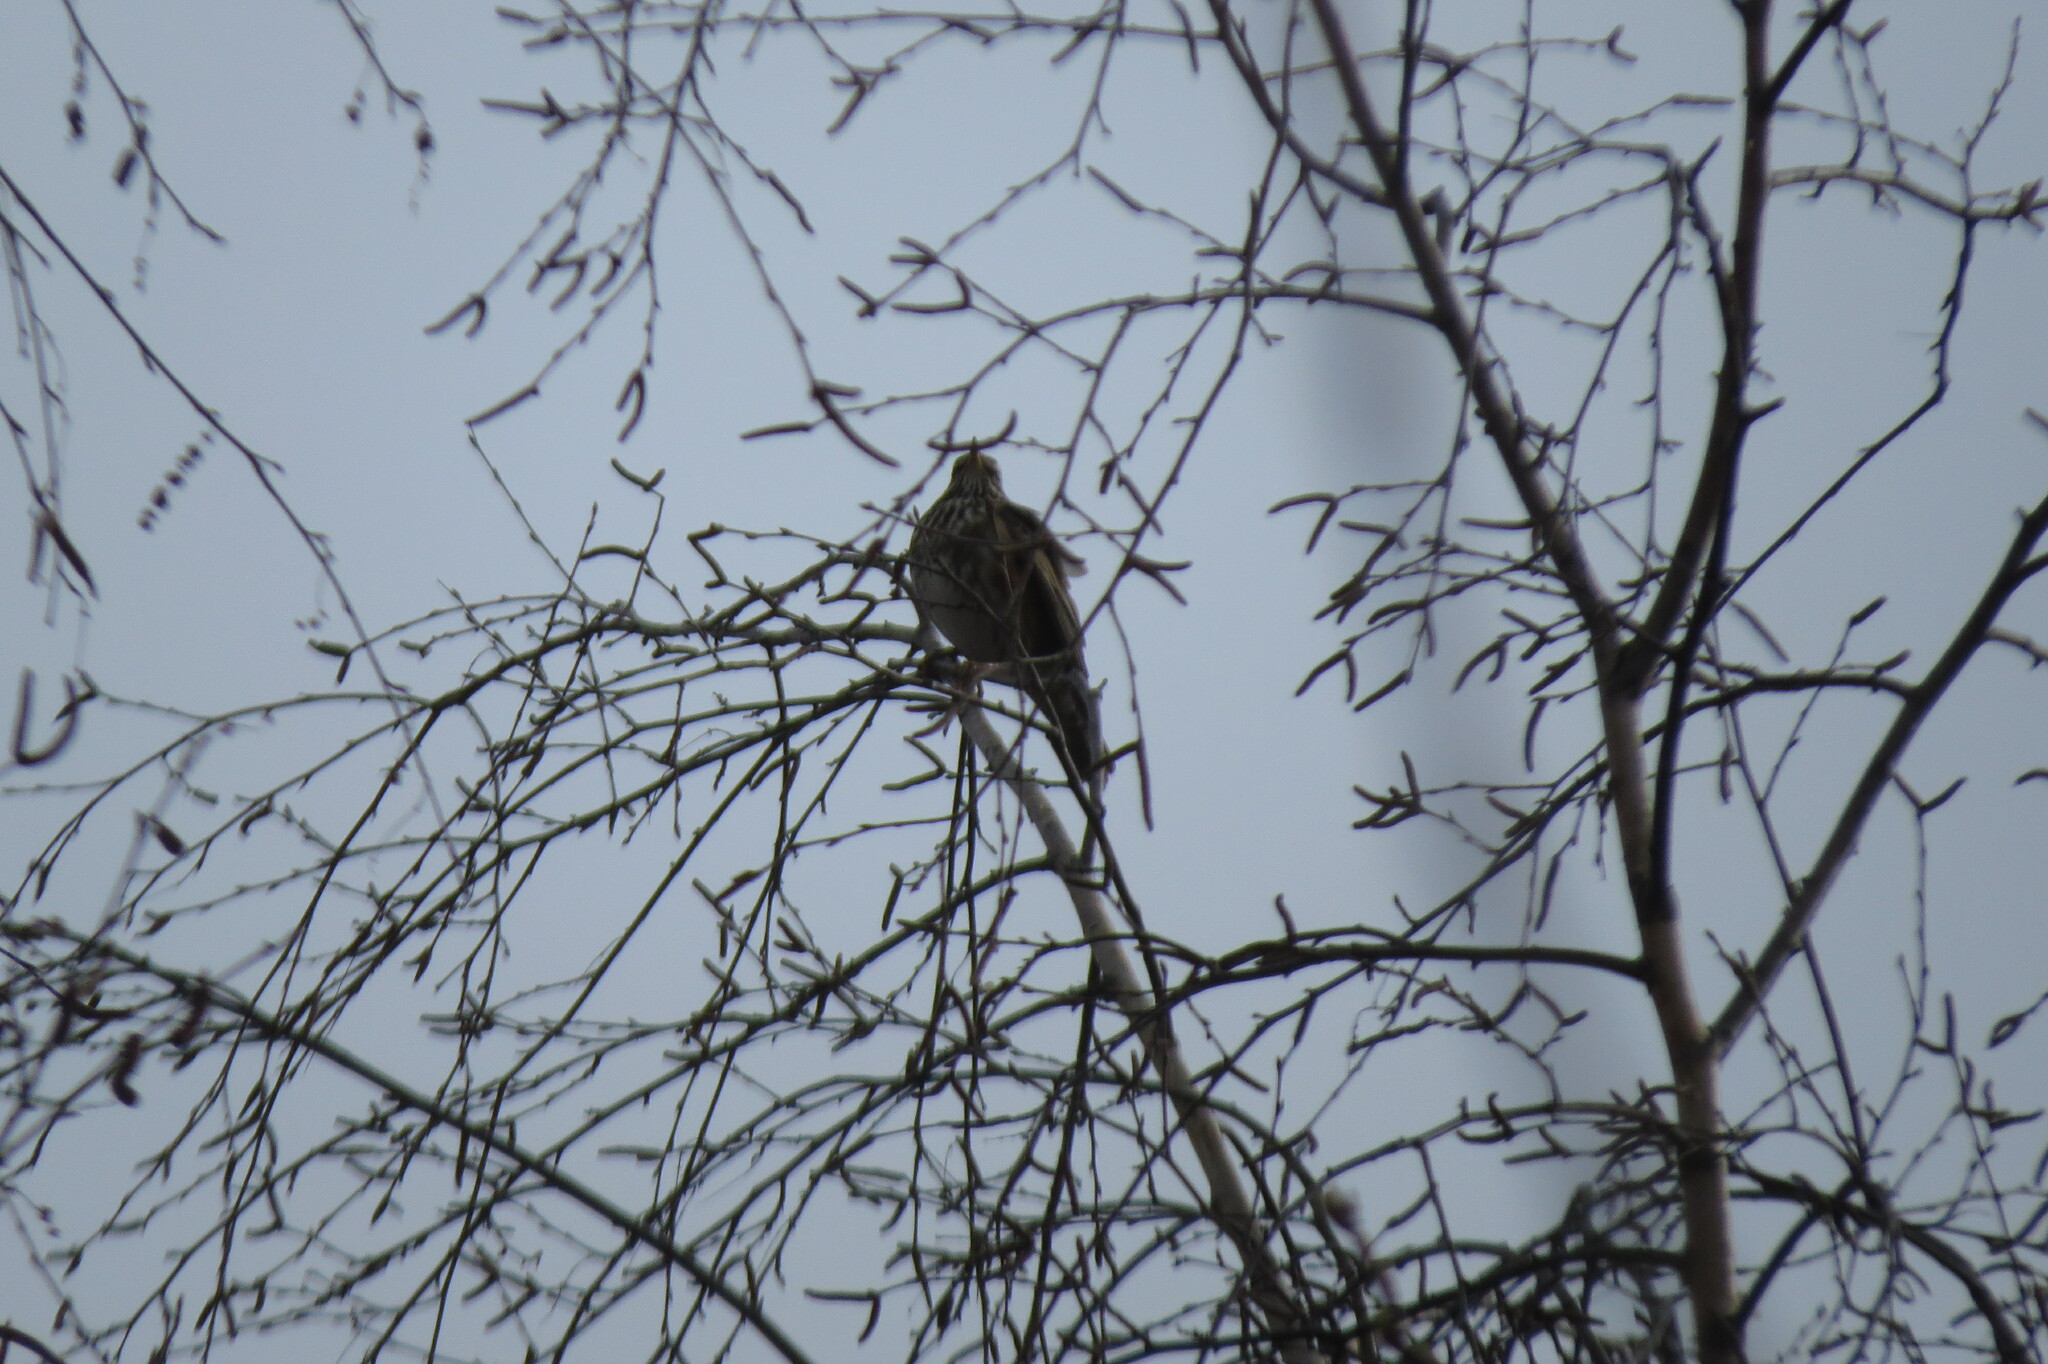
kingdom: Animalia
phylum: Chordata
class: Aves
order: Passeriformes
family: Turdidae
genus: Turdus
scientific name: Turdus iliacus
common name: Redwing
